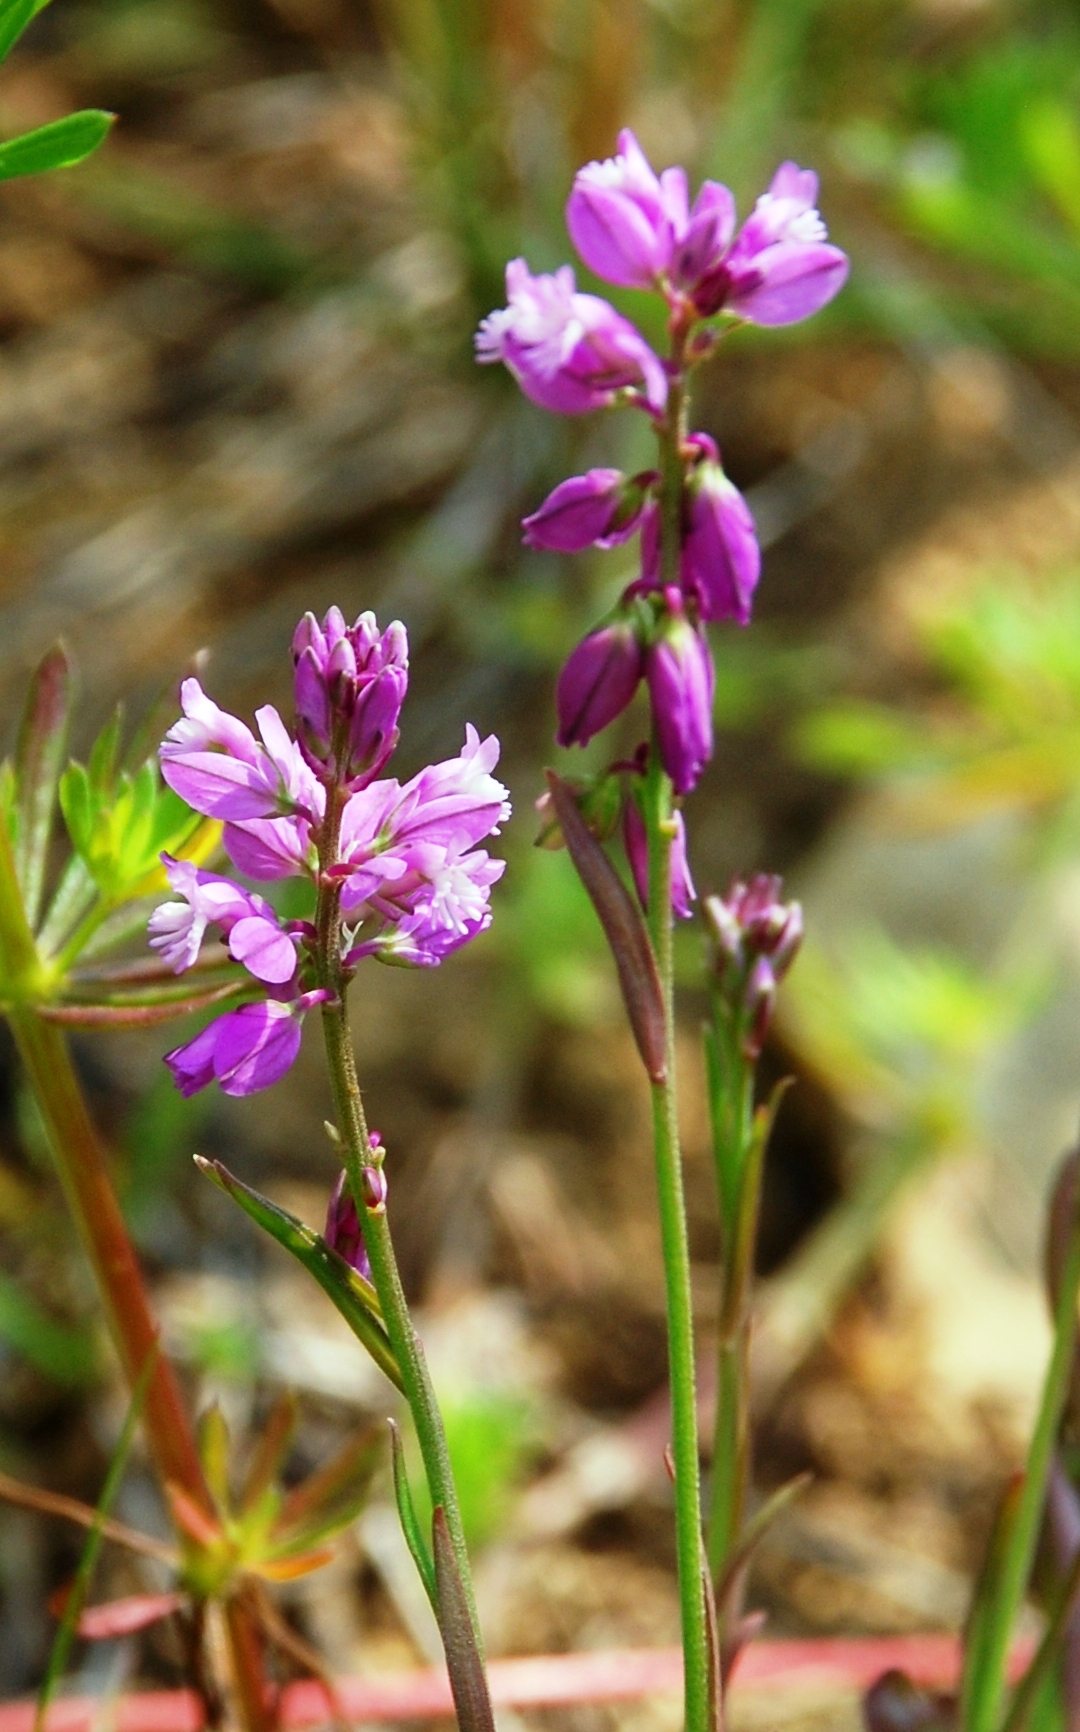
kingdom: Plantae
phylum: Tracheophyta
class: Magnoliopsida
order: Fabales
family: Polygalaceae
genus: Polygala
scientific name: Polygala comosa
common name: Tufted milkwort
